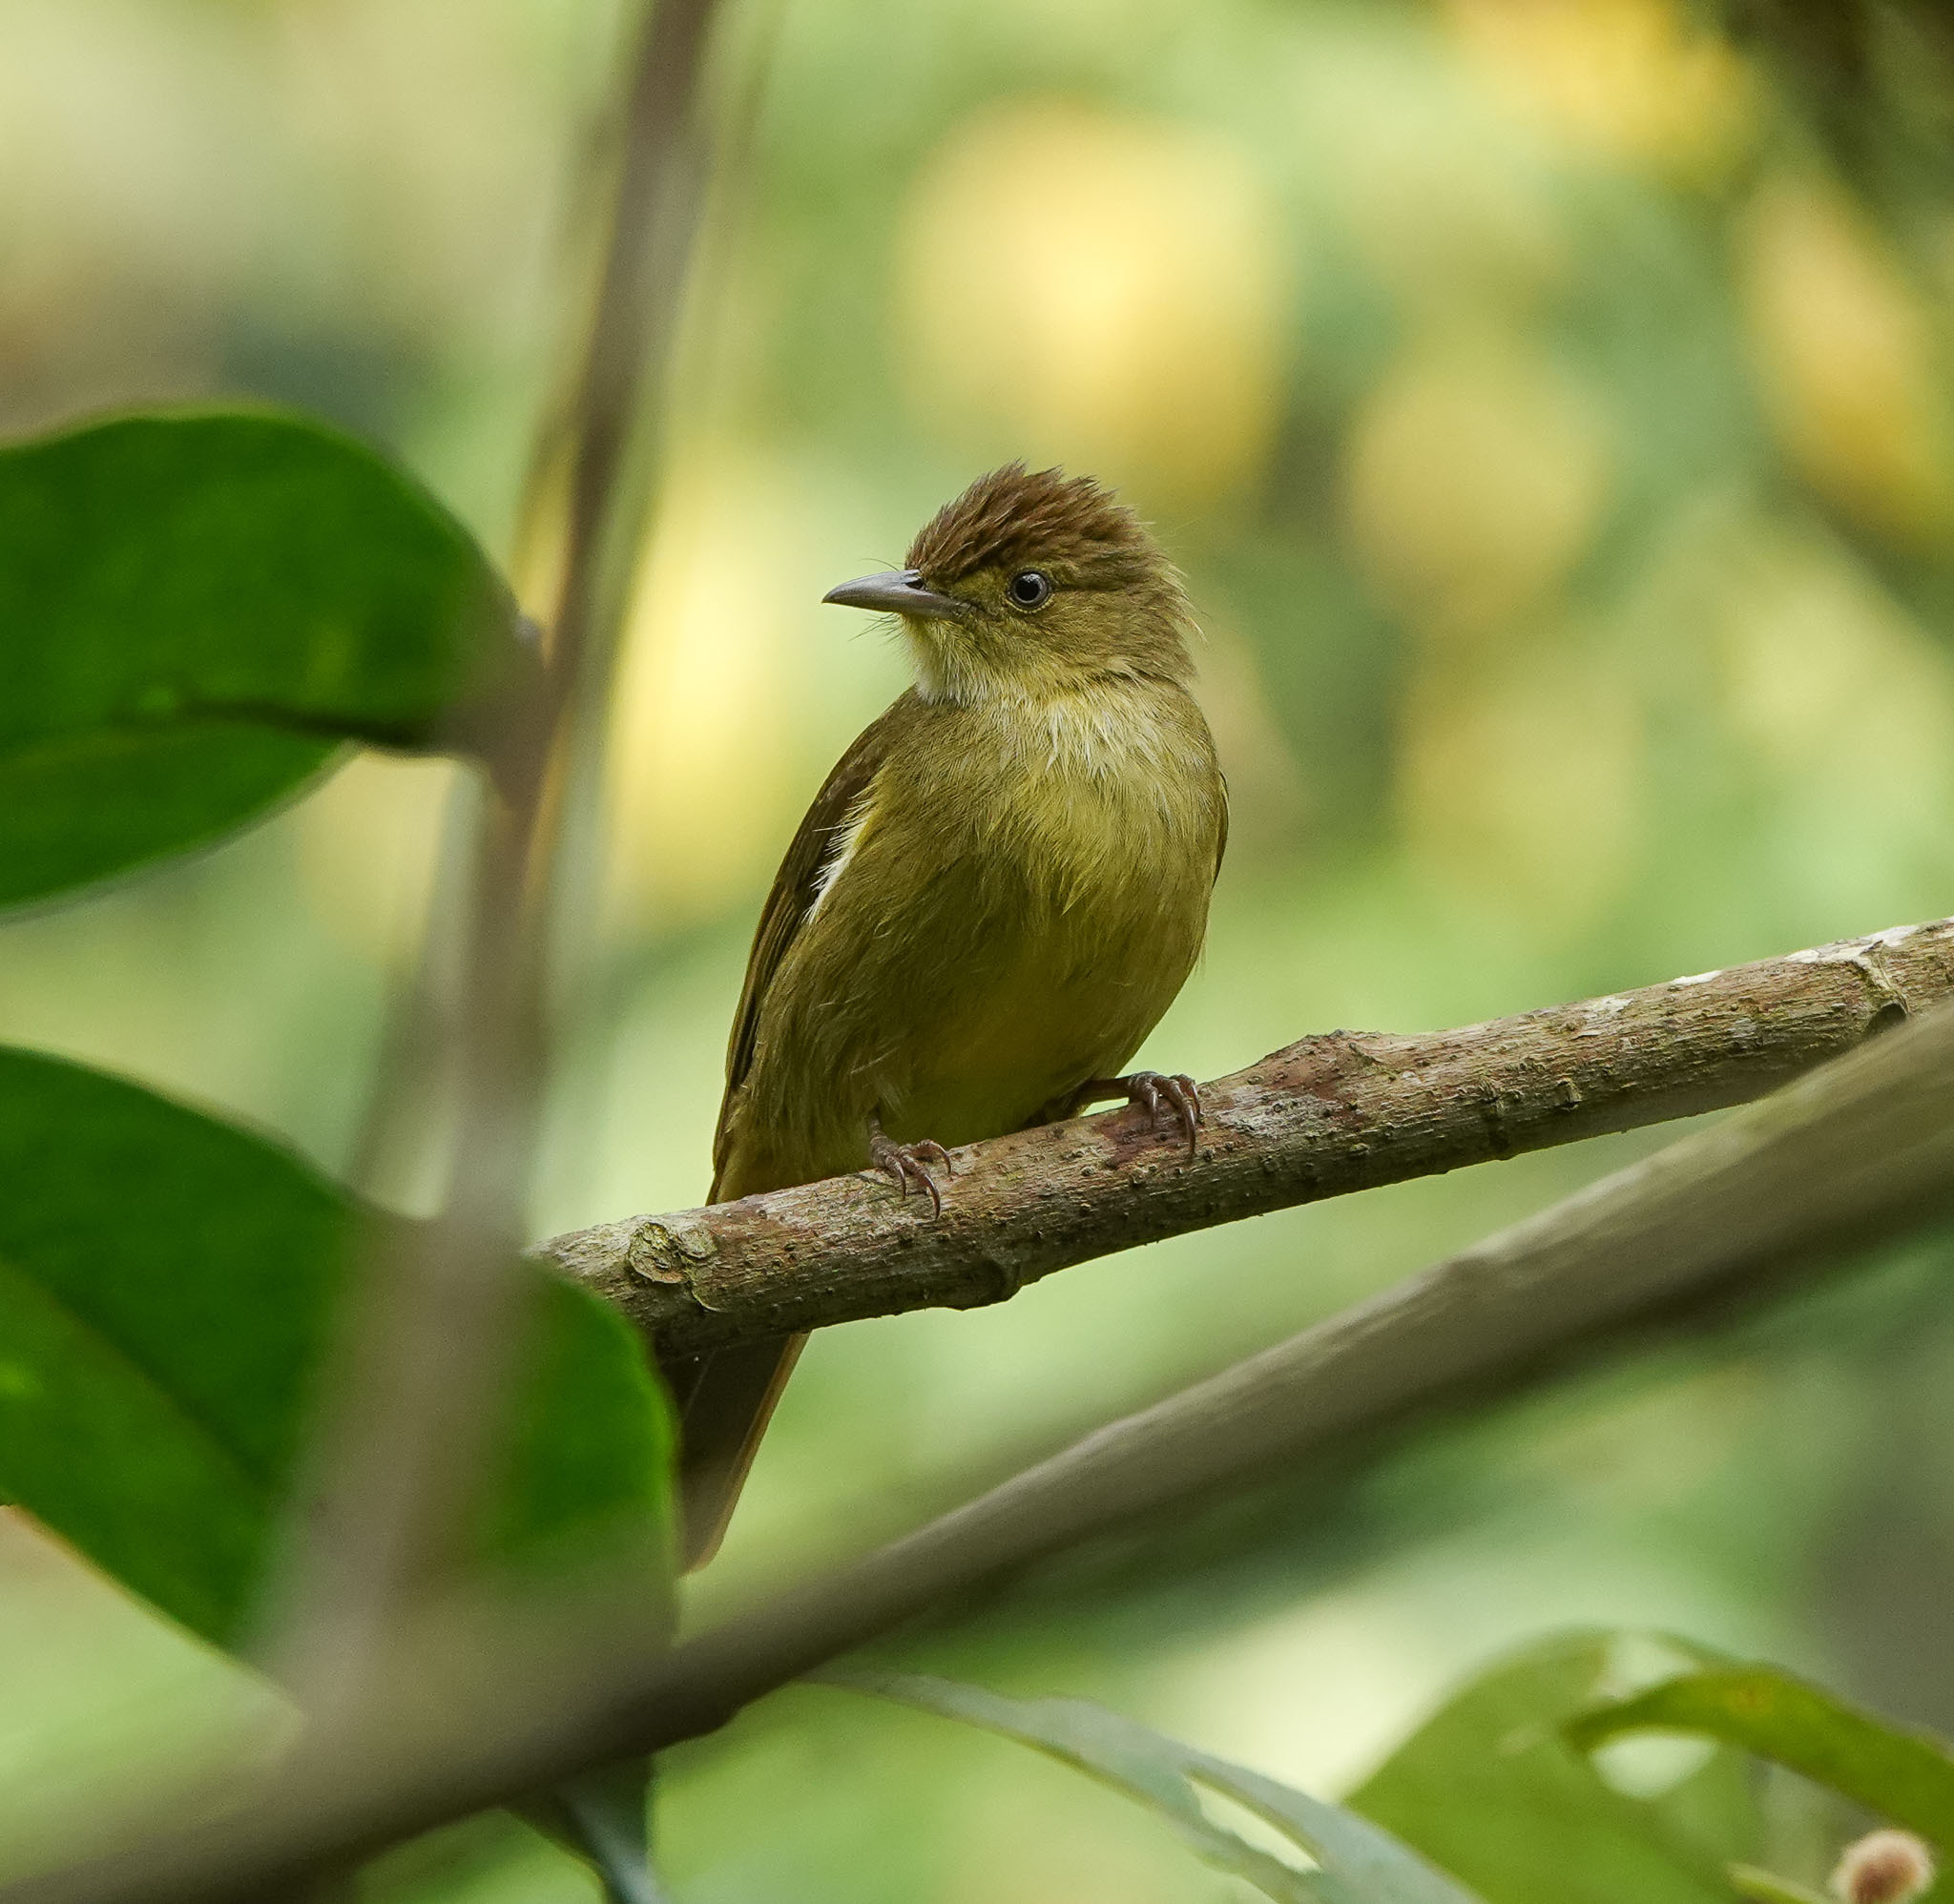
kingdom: Animalia
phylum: Chordata
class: Aves
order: Passeriformes
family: Pycnonotidae
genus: Iole
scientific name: Iole virescens
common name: Olive bulbul
